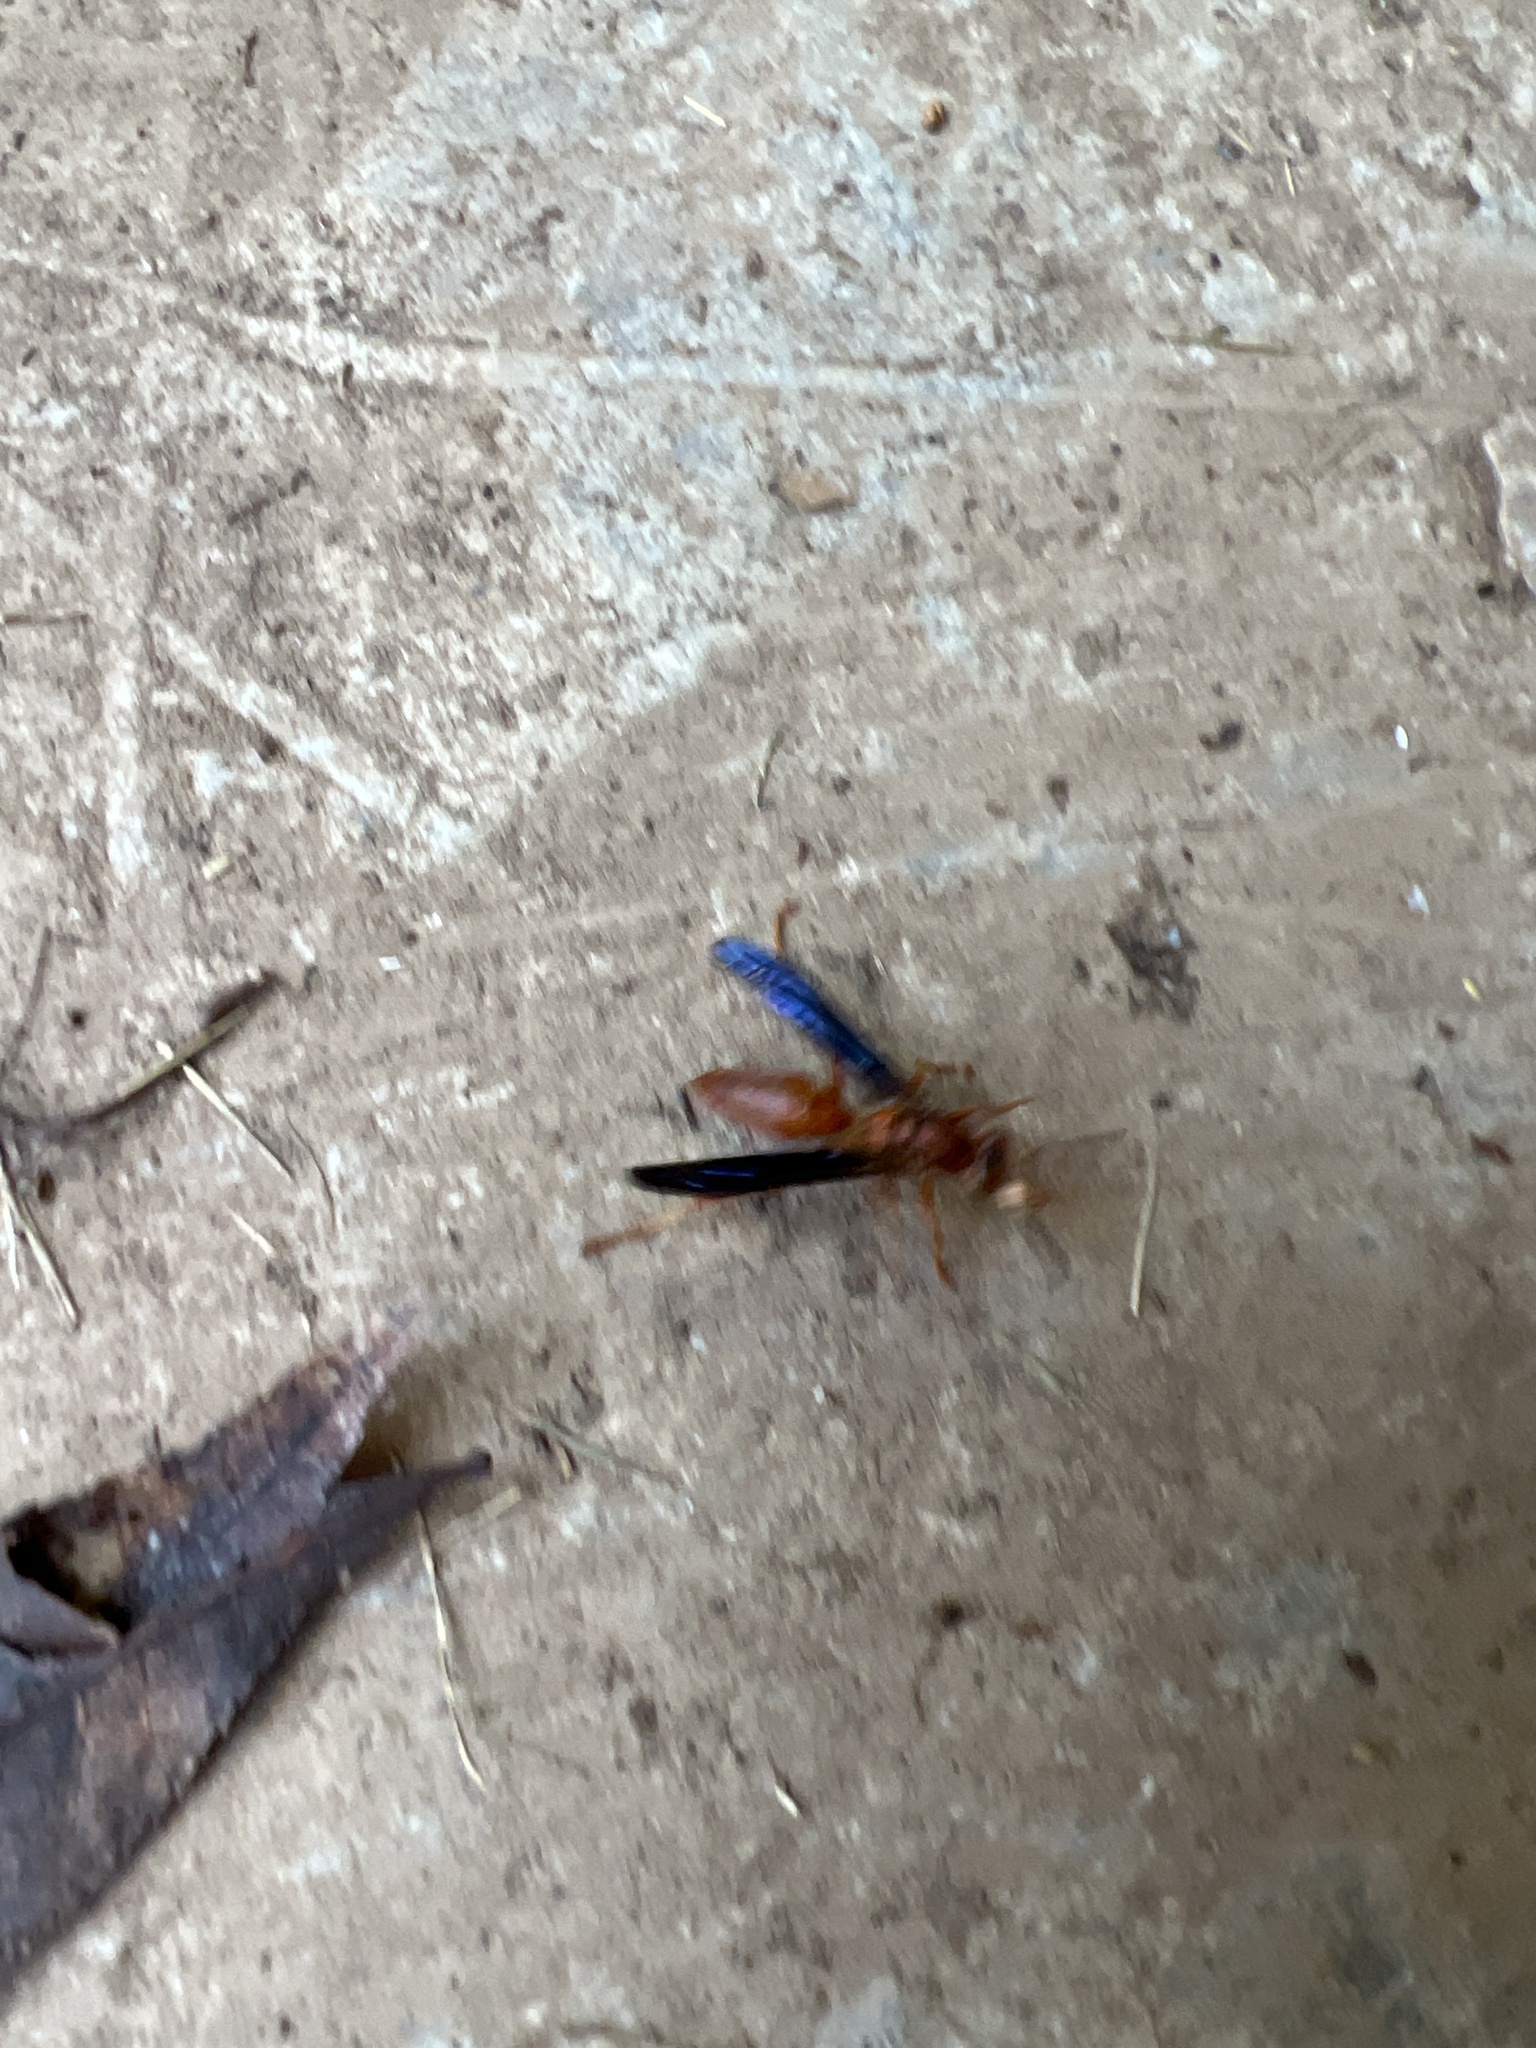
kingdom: Animalia
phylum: Arthropoda
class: Insecta
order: Hymenoptera
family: Eumenidae
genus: Polistes
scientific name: Polistes carolina
